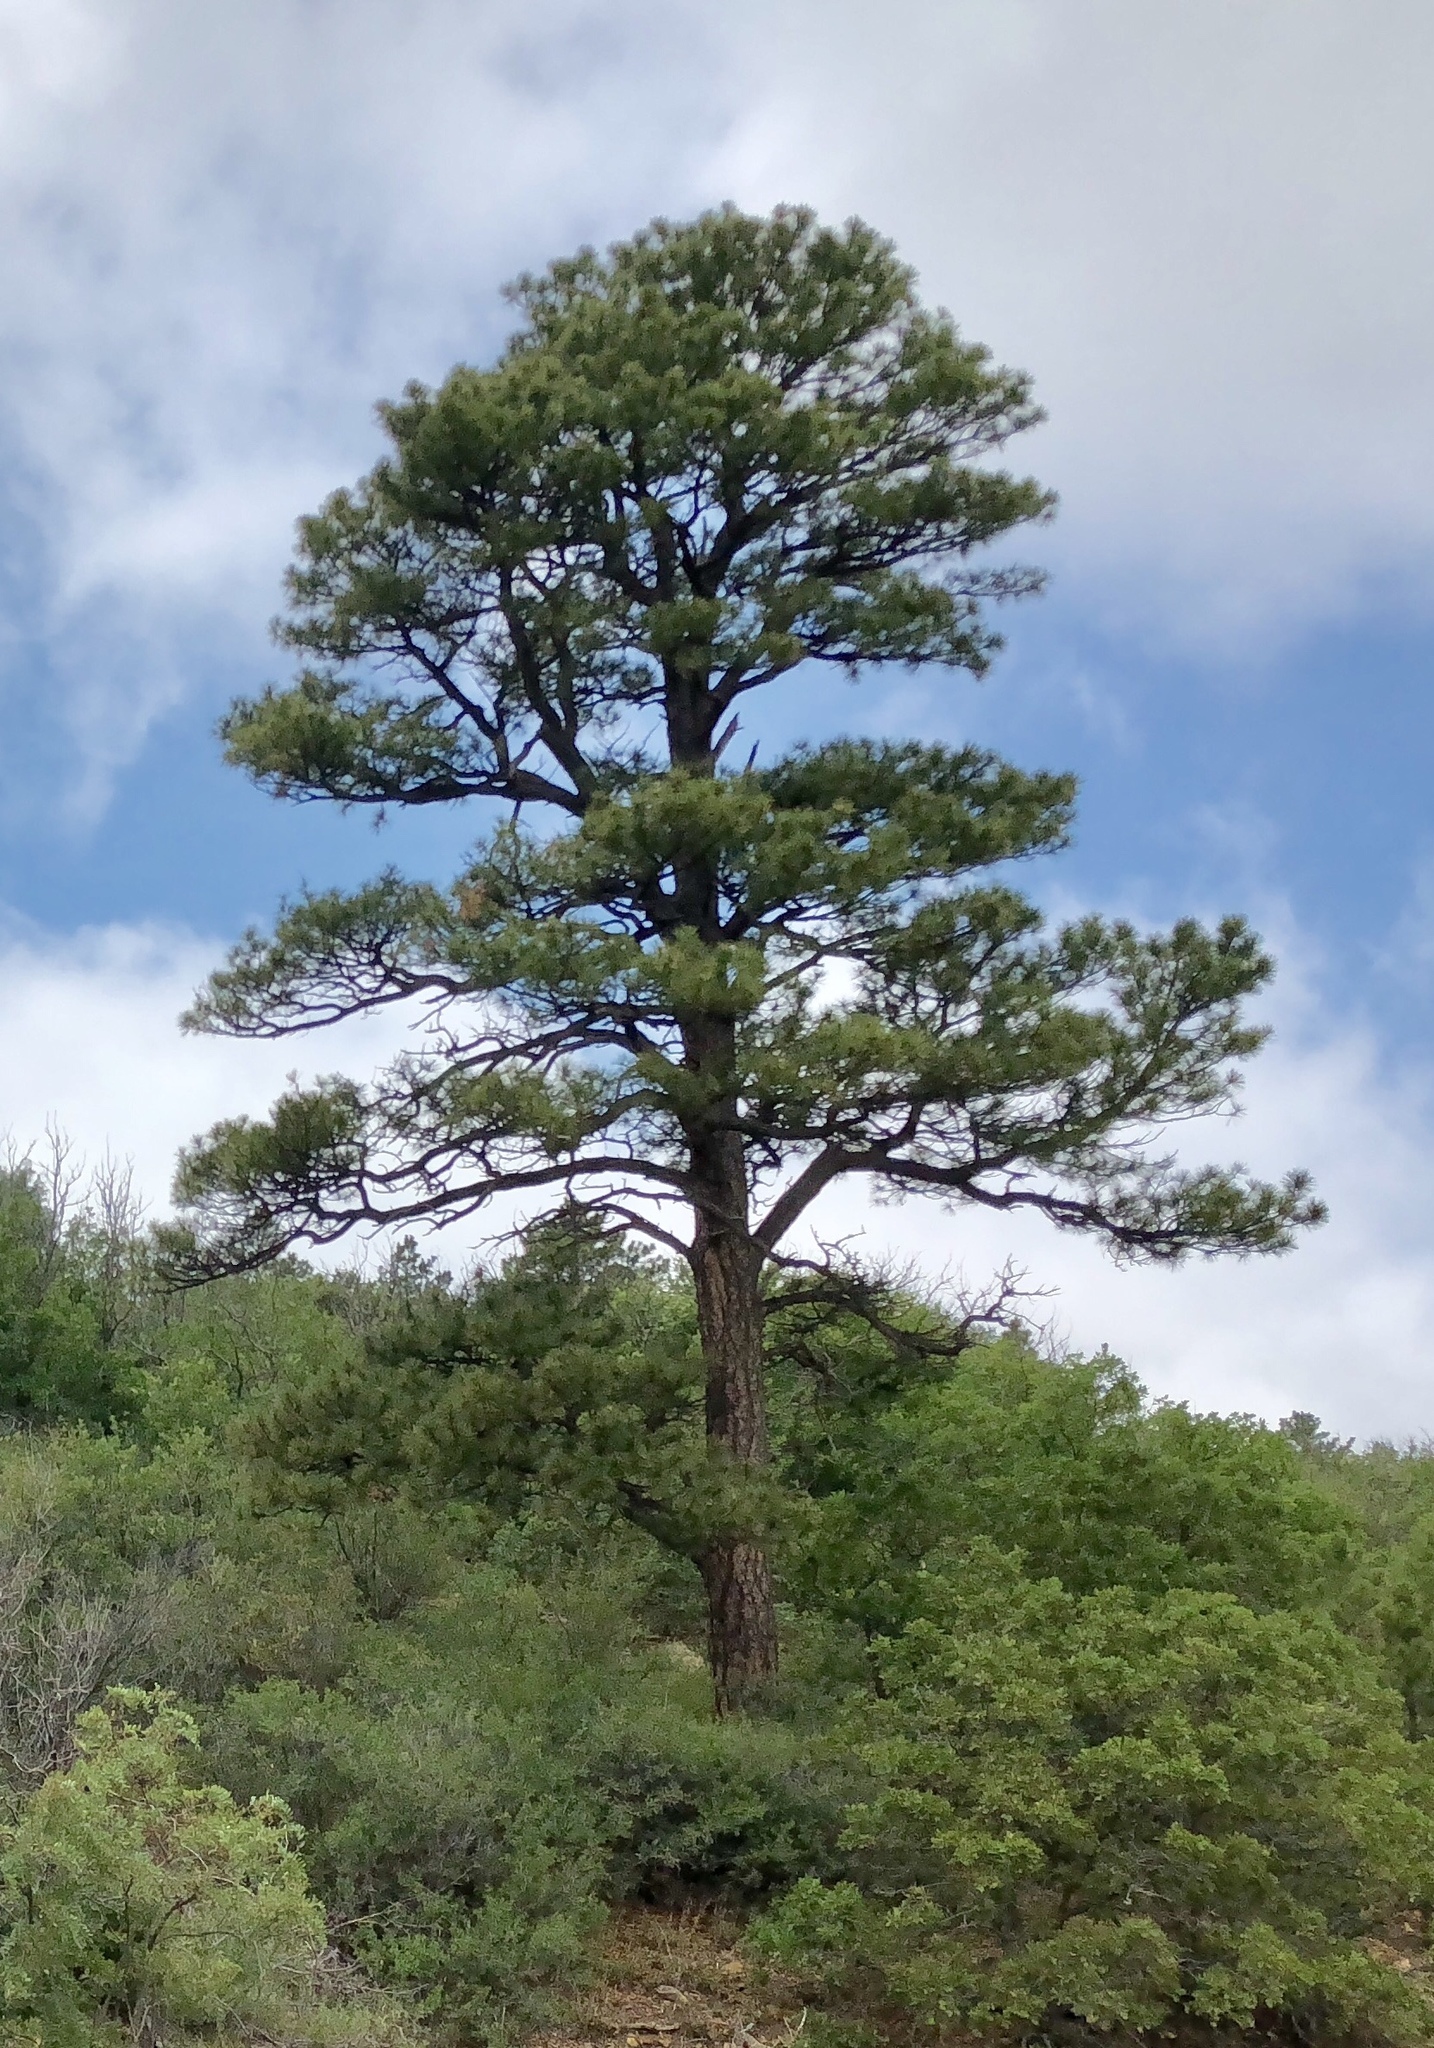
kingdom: Plantae
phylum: Tracheophyta
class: Pinopsida
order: Pinales
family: Pinaceae
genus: Pinus
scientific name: Pinus ponderosa
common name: Western yellow-pine
